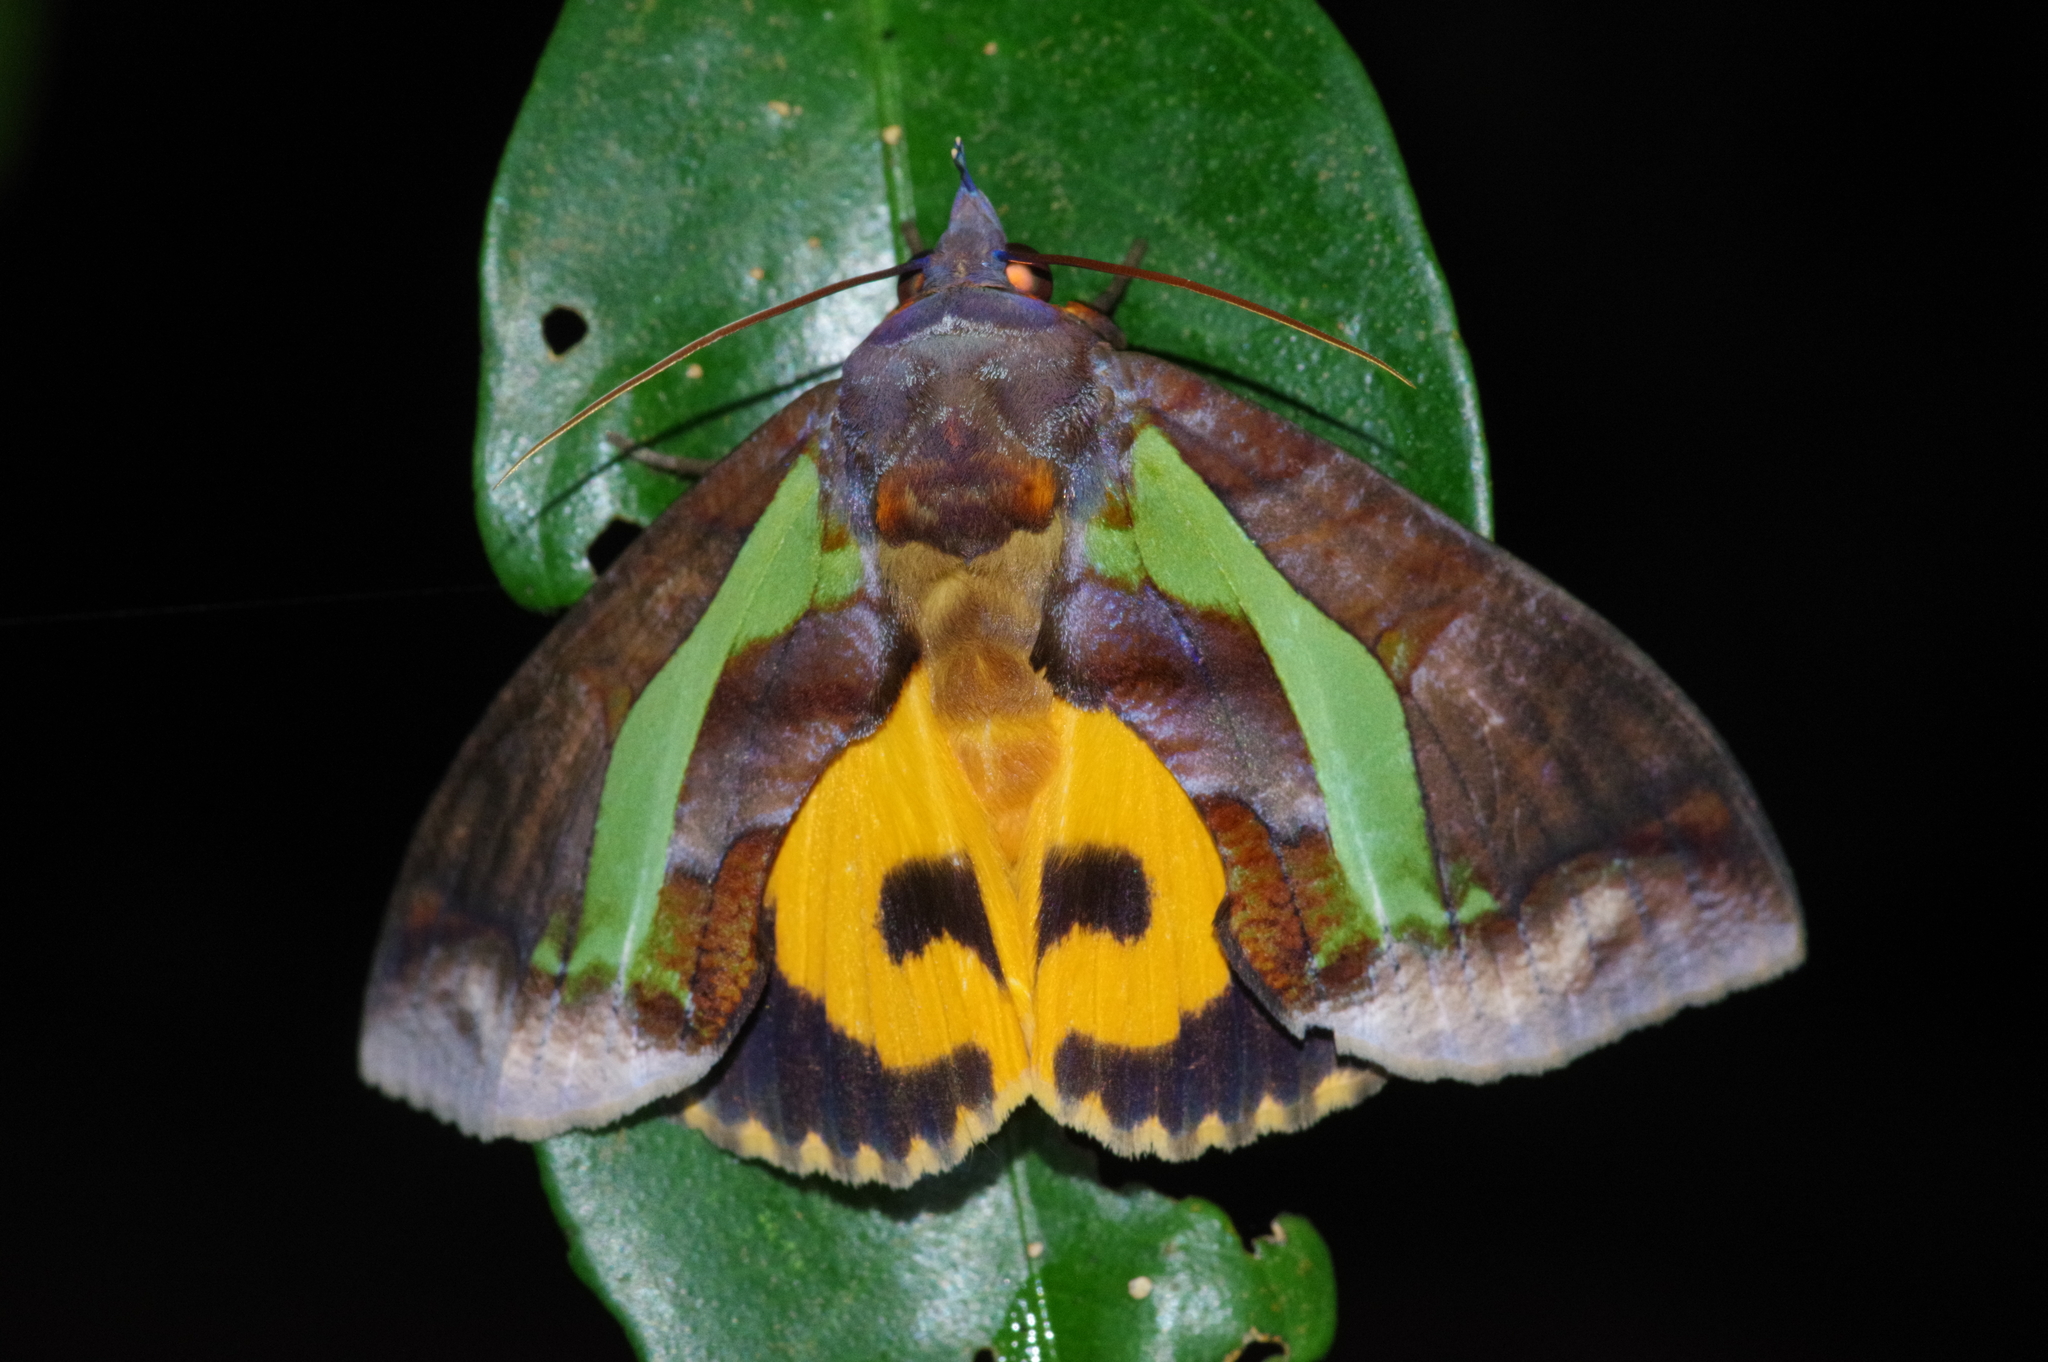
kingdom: Animalia
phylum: Arthropoda
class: Insecta
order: Lepidoptera
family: Erebidae
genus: Eudocima
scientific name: Eudocima homaena
